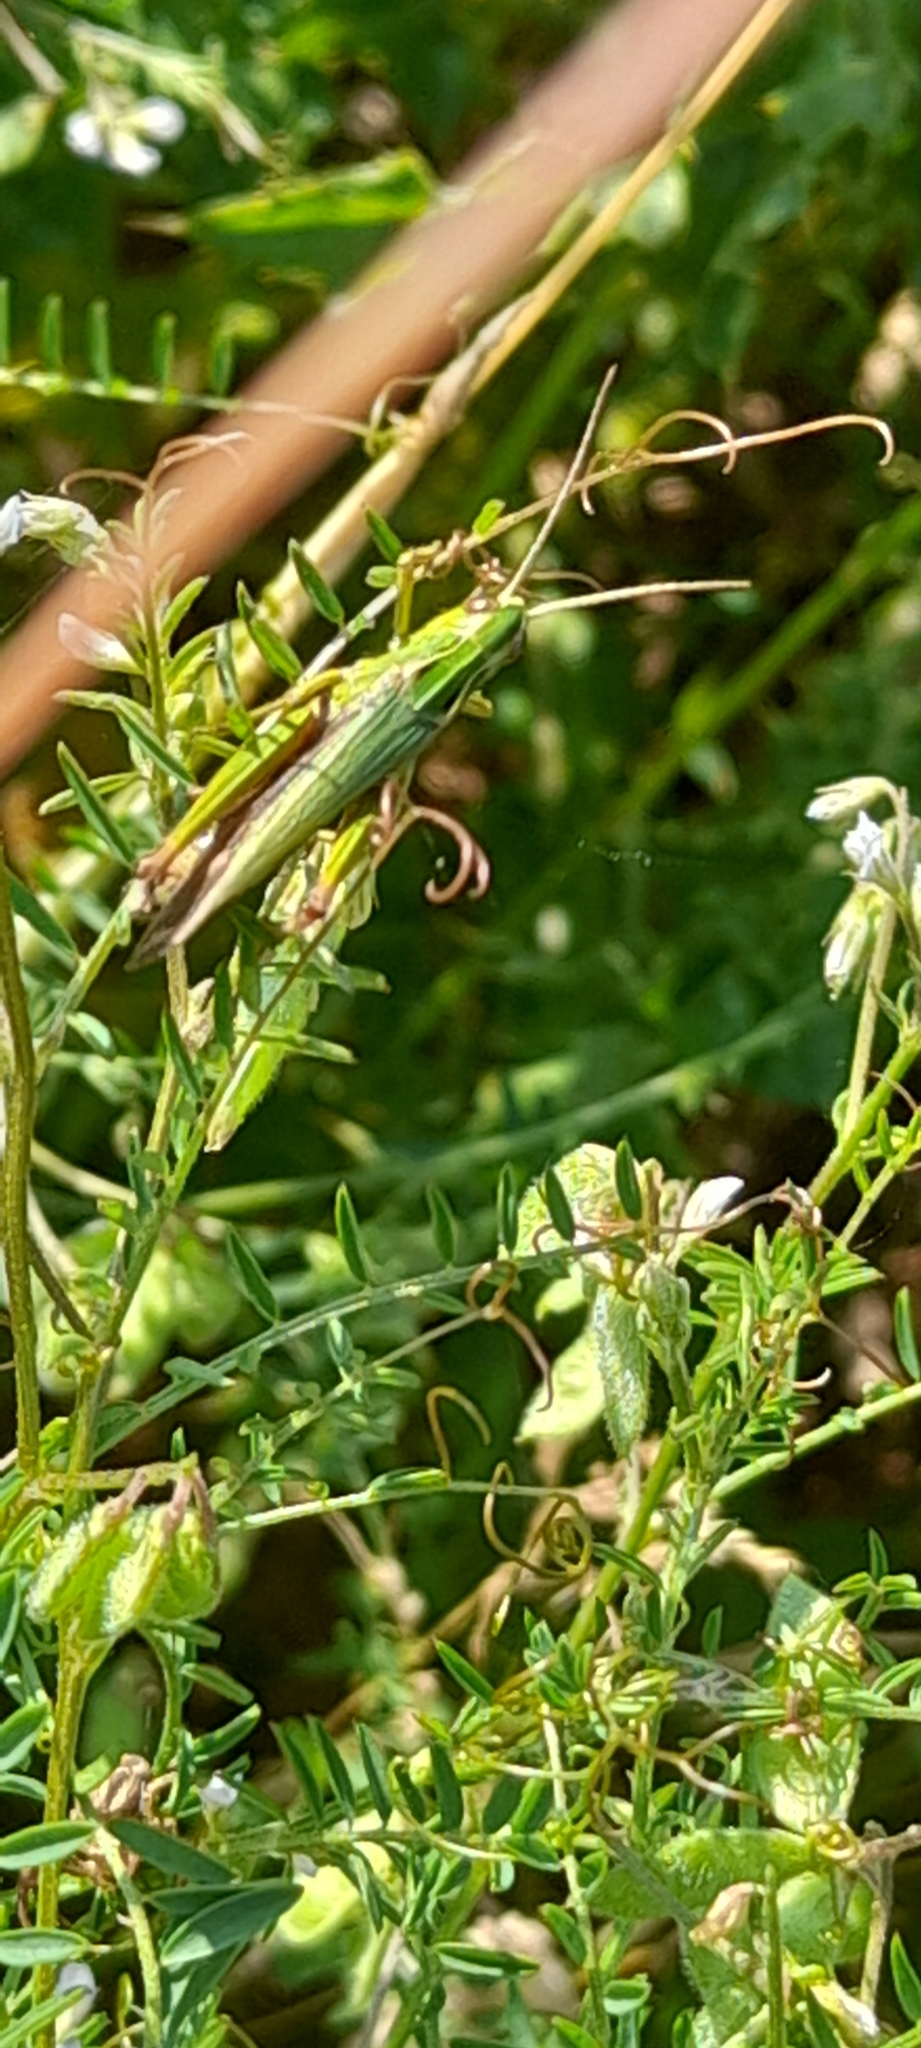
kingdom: Animalia
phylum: Arthropoda
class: Insecta
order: Orthoptera
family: Acrididae
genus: Omocestus
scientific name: Omocestus viridulus
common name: Common green grasshopper
